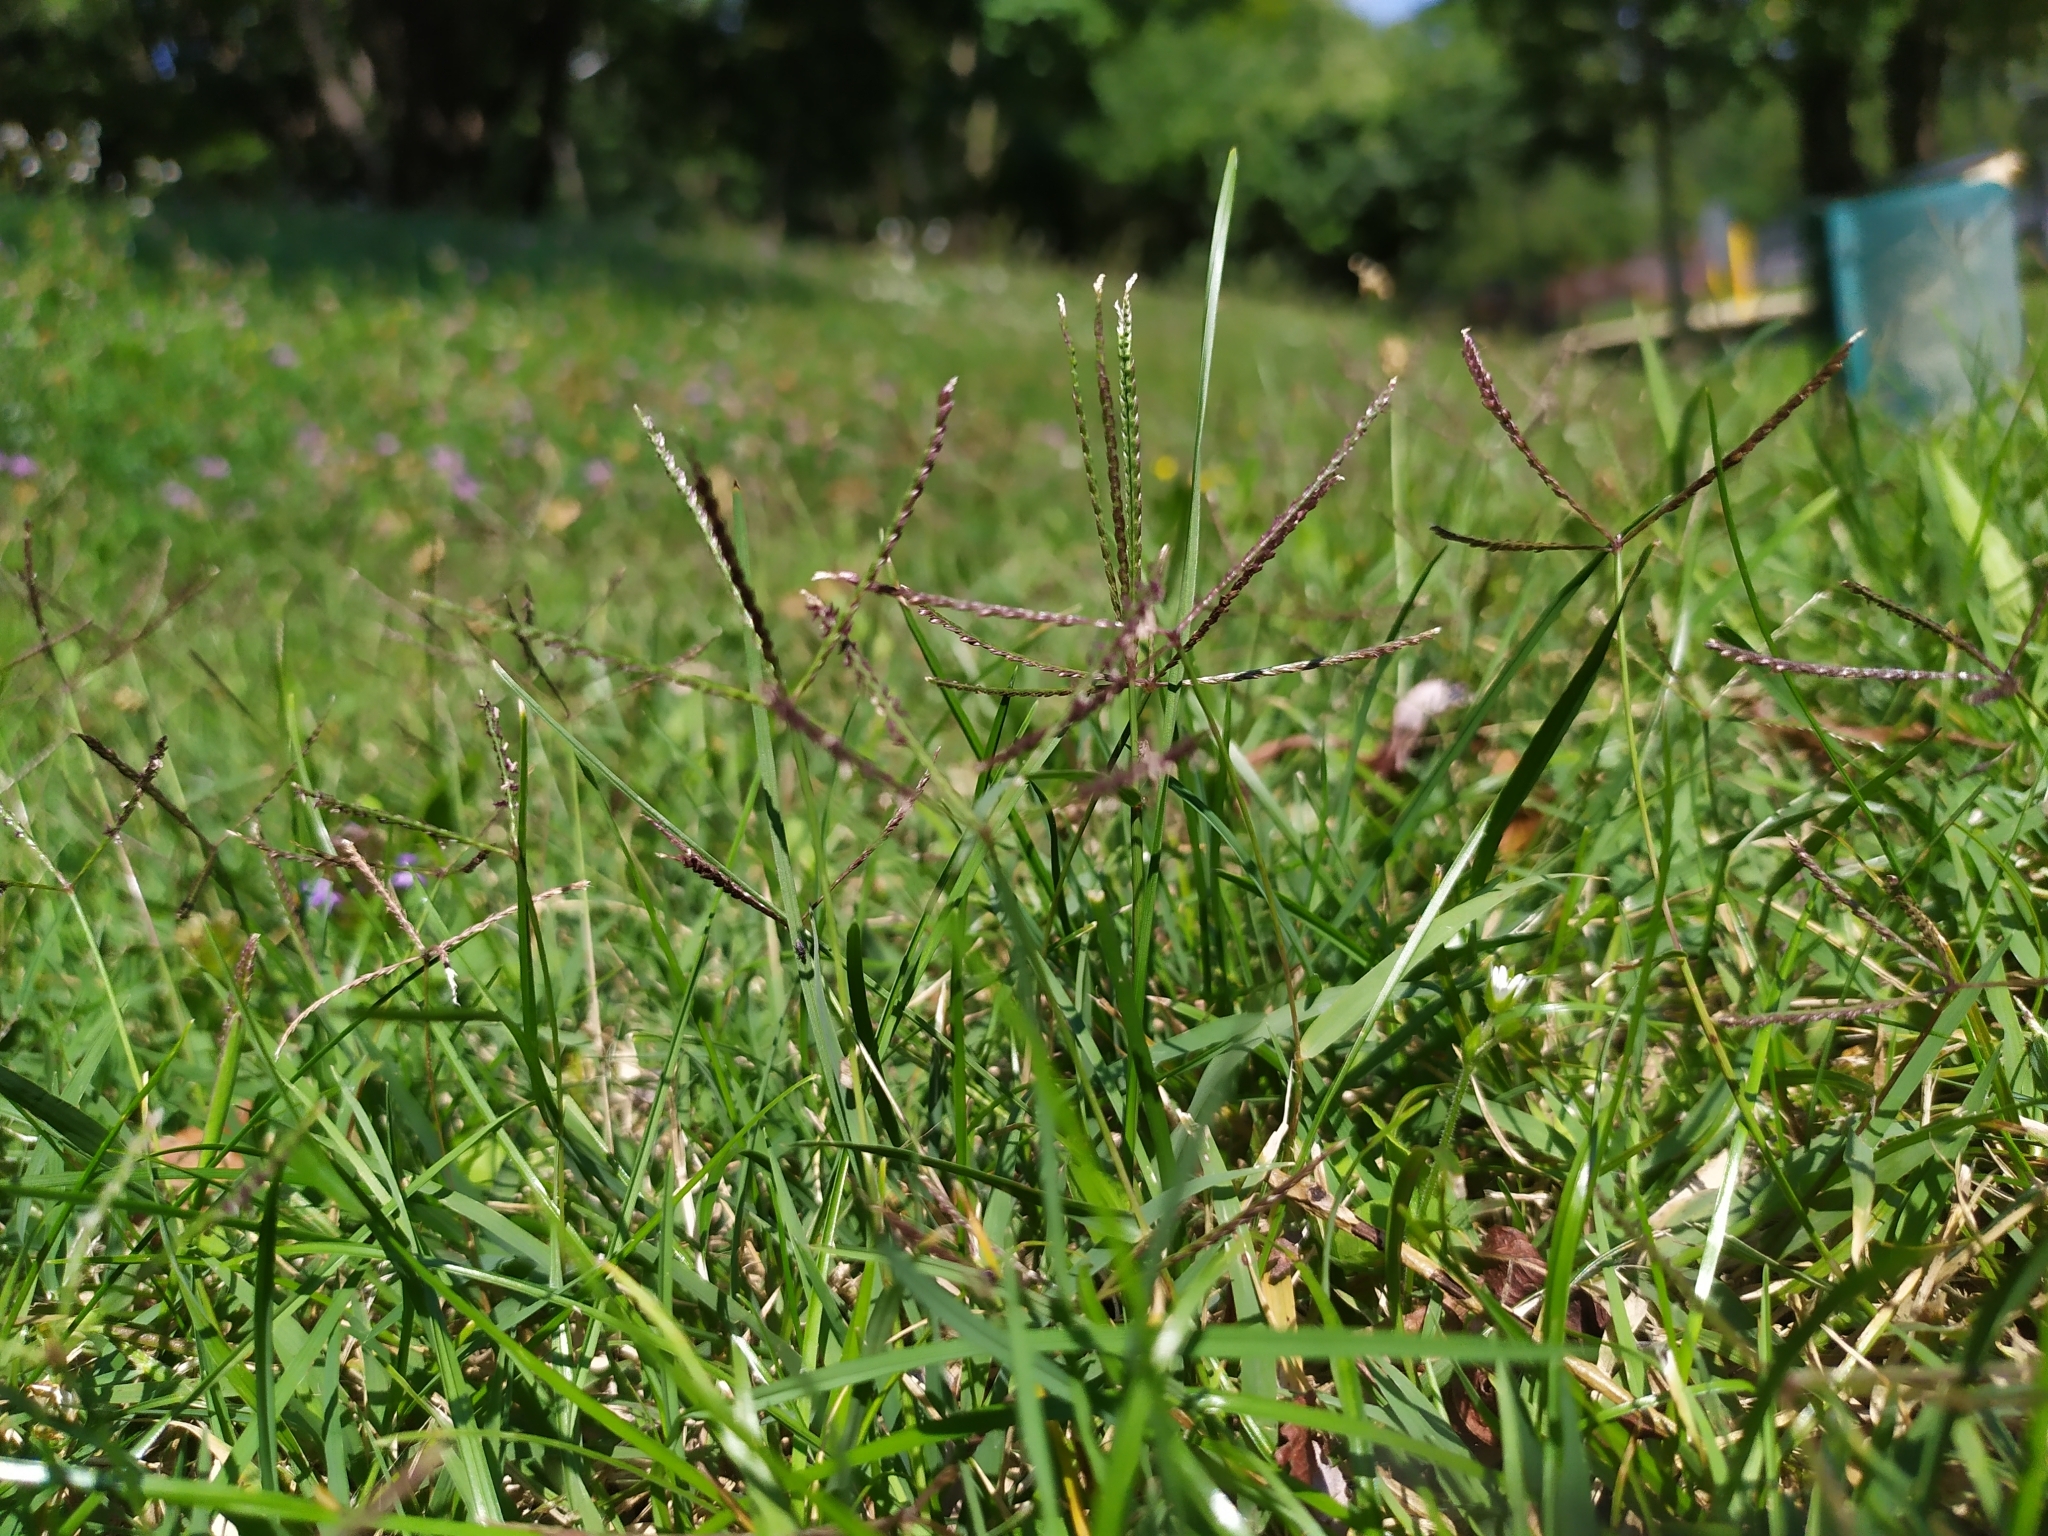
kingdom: Plantae
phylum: Tracheophyta
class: Liliopsida
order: Poales
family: Poaceae
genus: Cynodon
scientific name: Cynodon dactylon
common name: Bermuda grass
